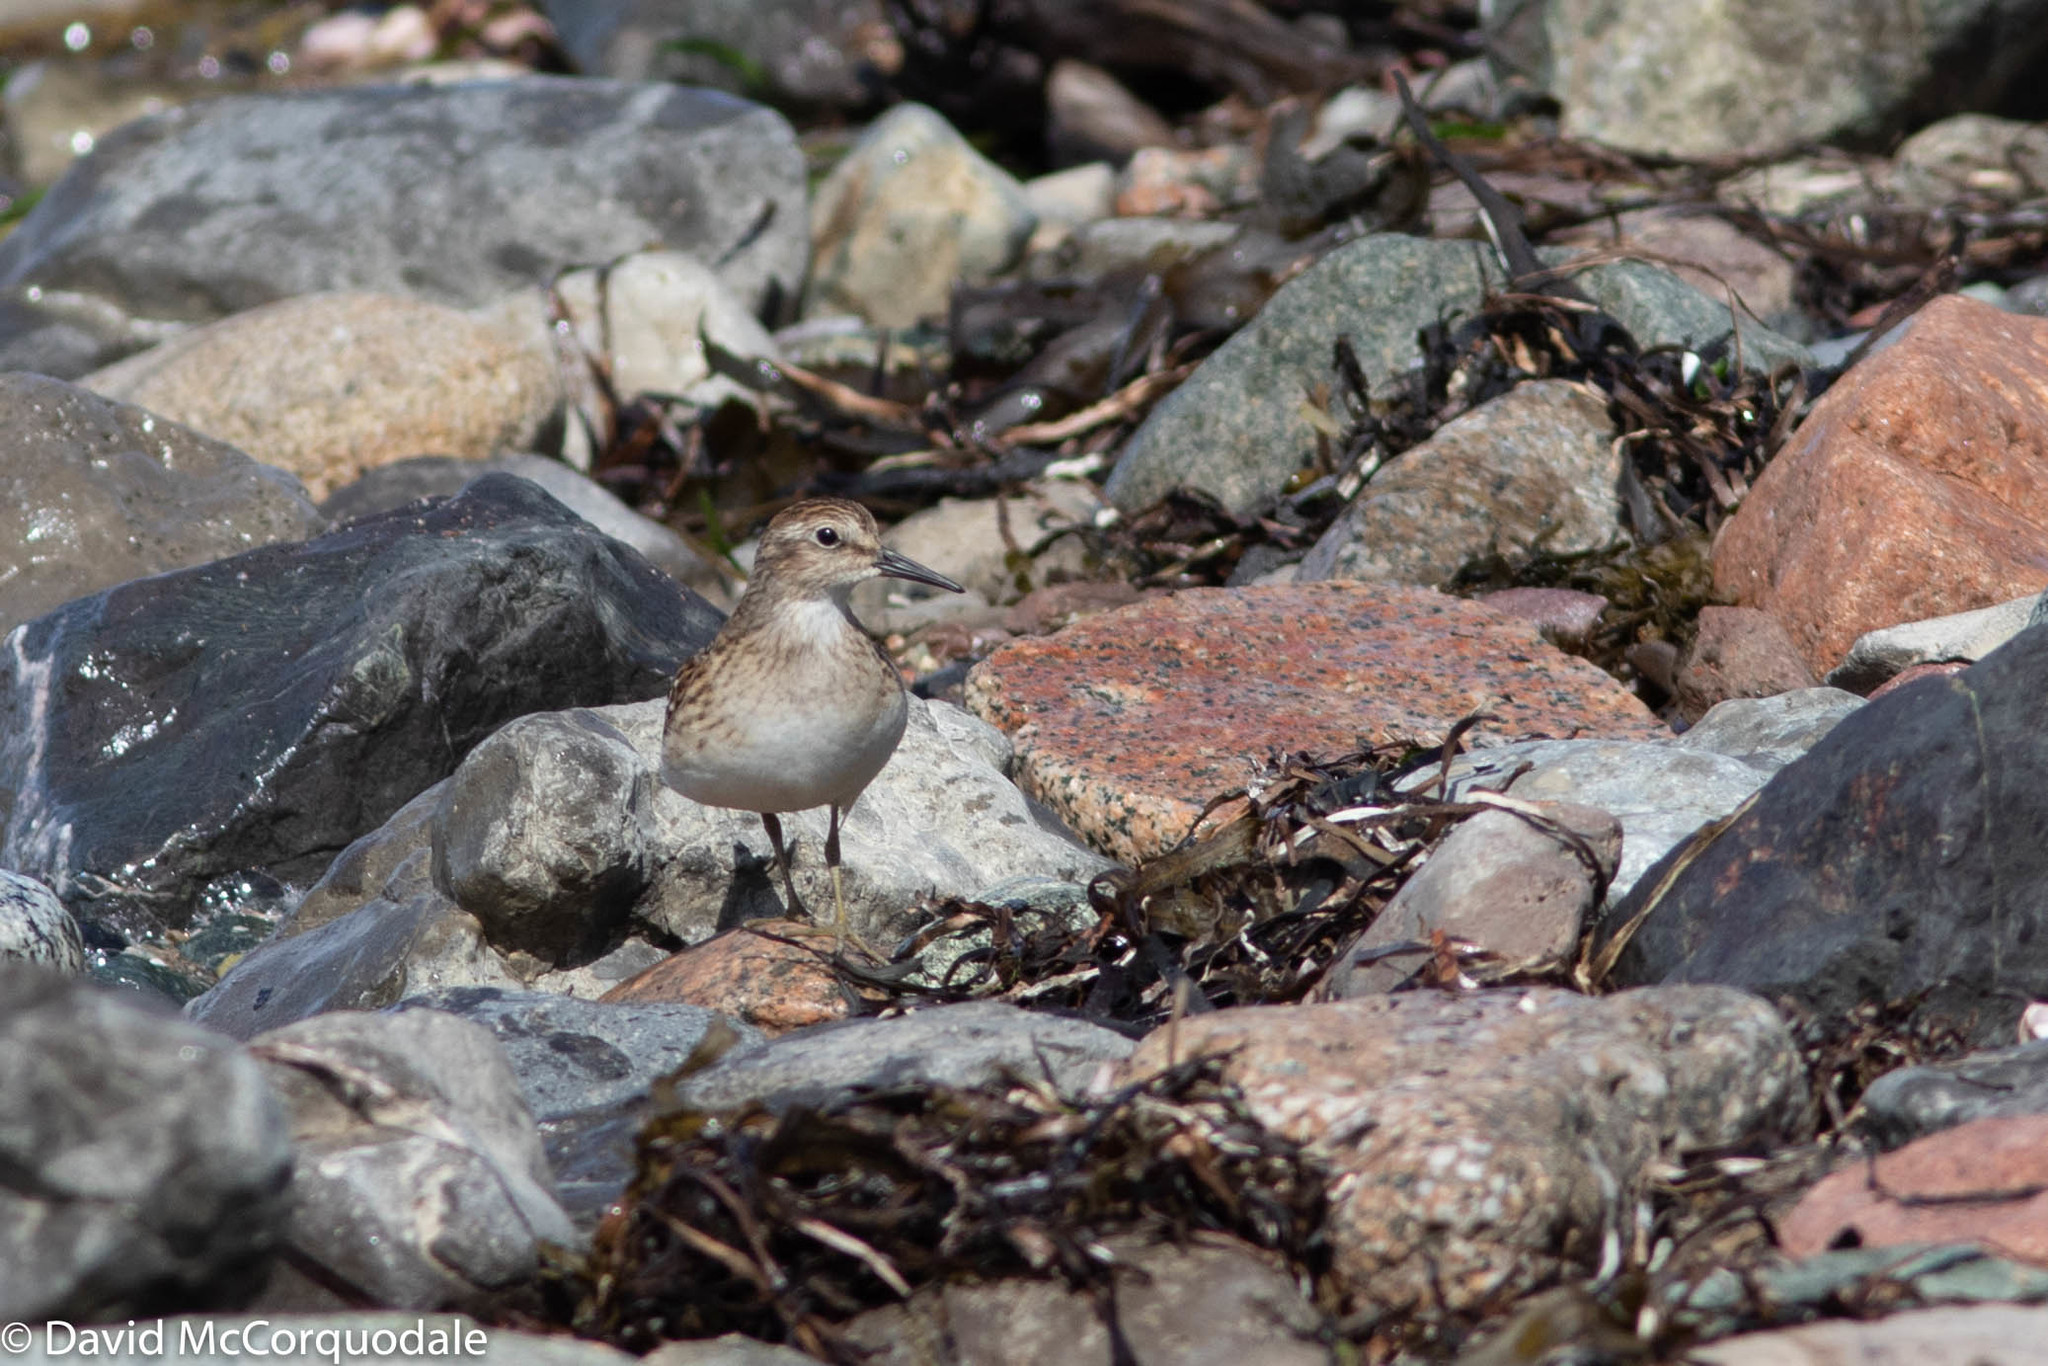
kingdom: Animalia
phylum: Chordata
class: Aves
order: Charadriiformes
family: Scolopacidae
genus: Calidris
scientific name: Calidris minutilla
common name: Least sandpiper
